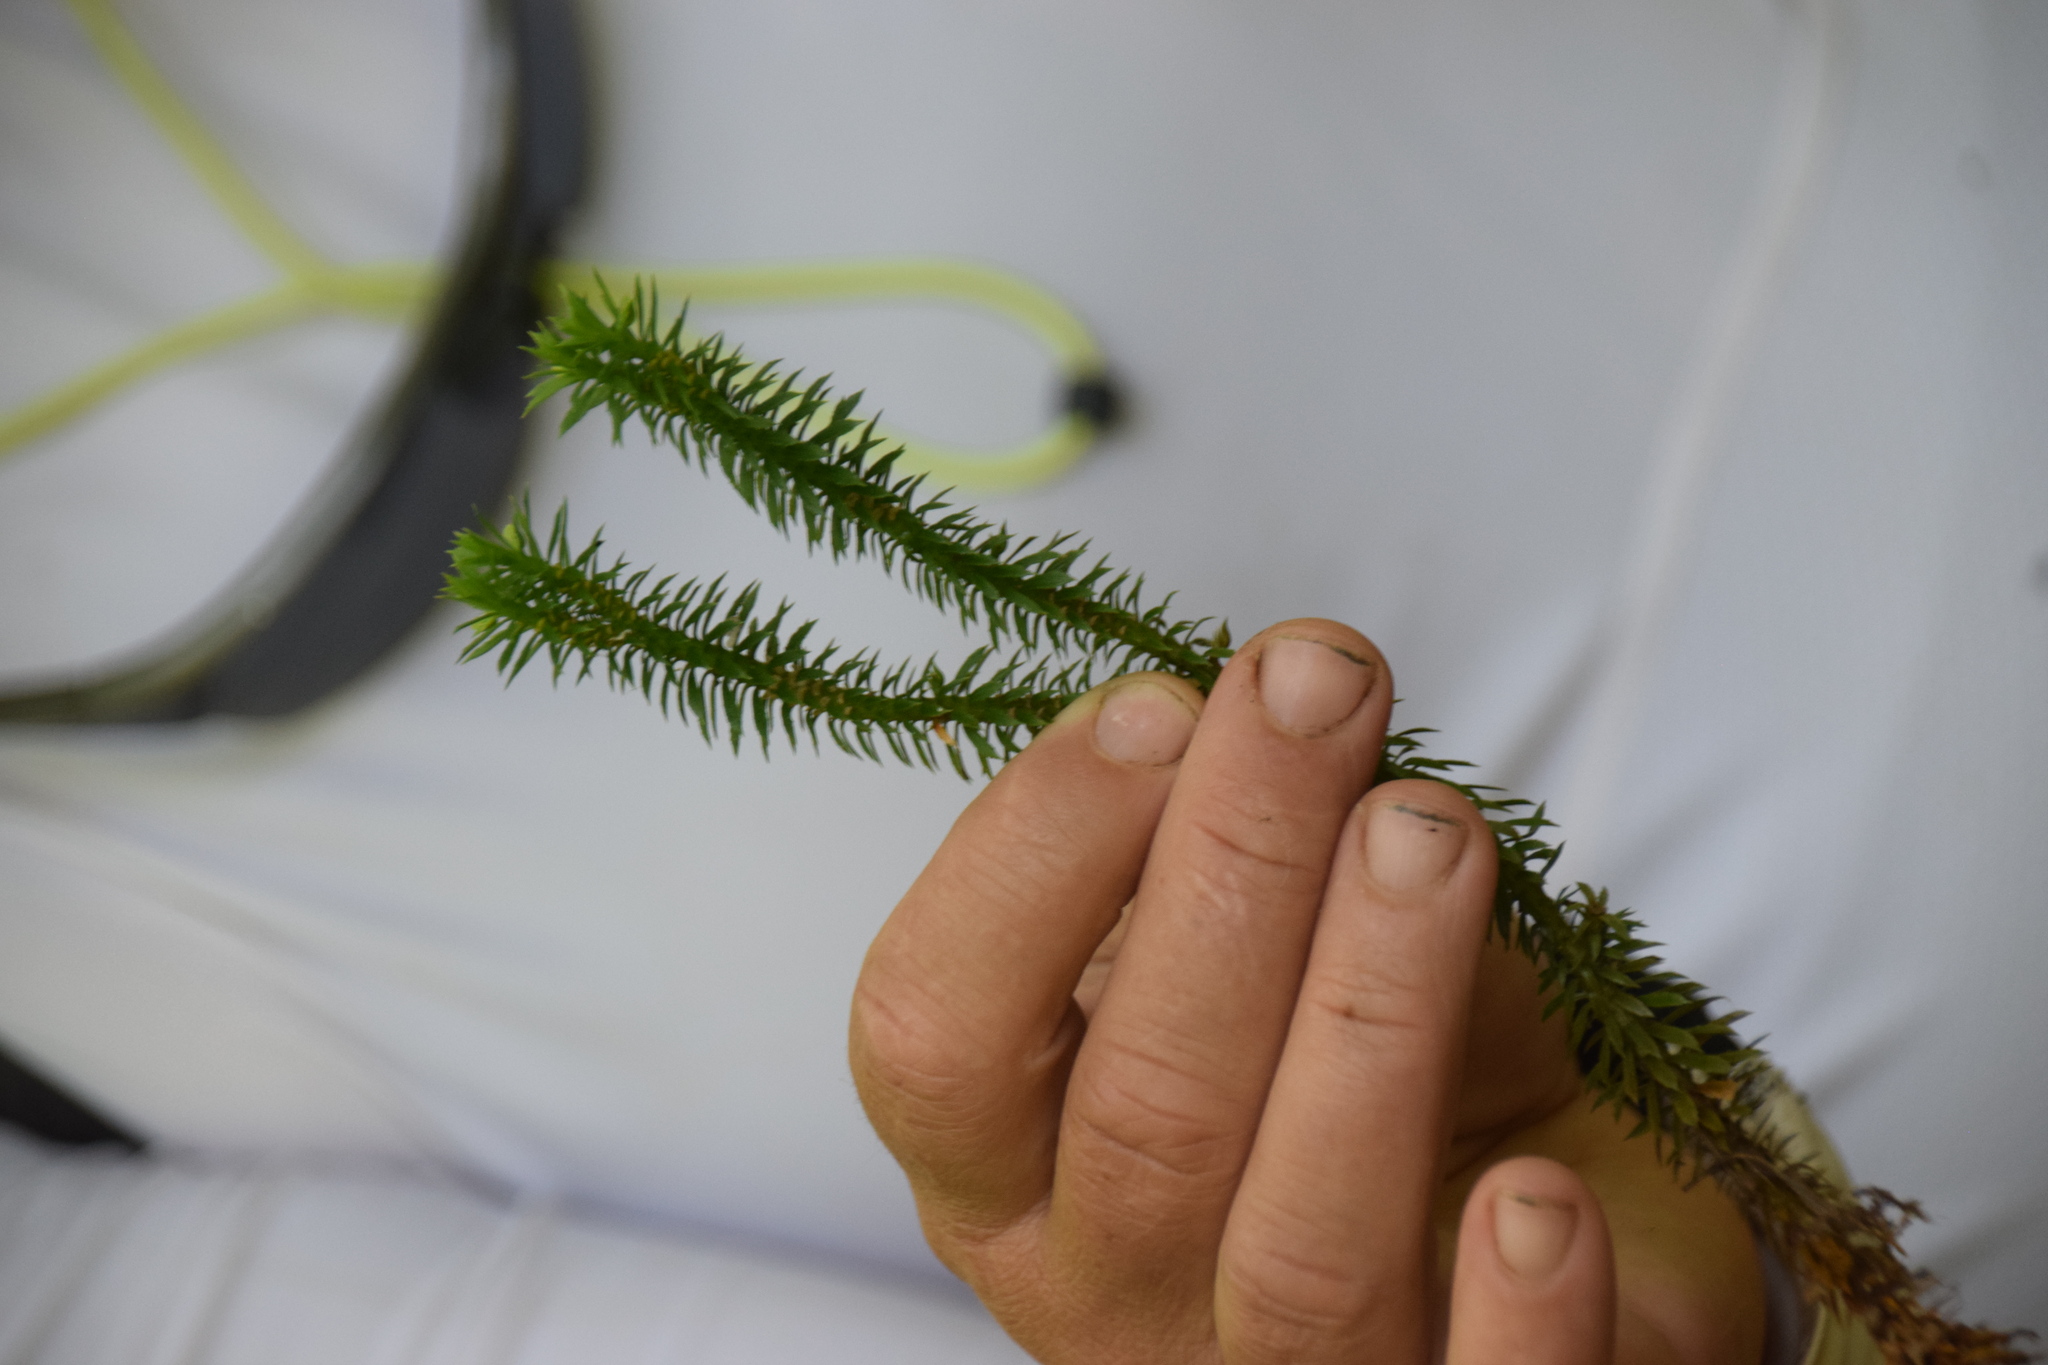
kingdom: Plantae
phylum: Tracheophyta
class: Lycopodiopsida
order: Lycopodiales
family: Lycopodiaceae
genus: Huperzia
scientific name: Huperzia lucidula
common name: Shining clubmoss
